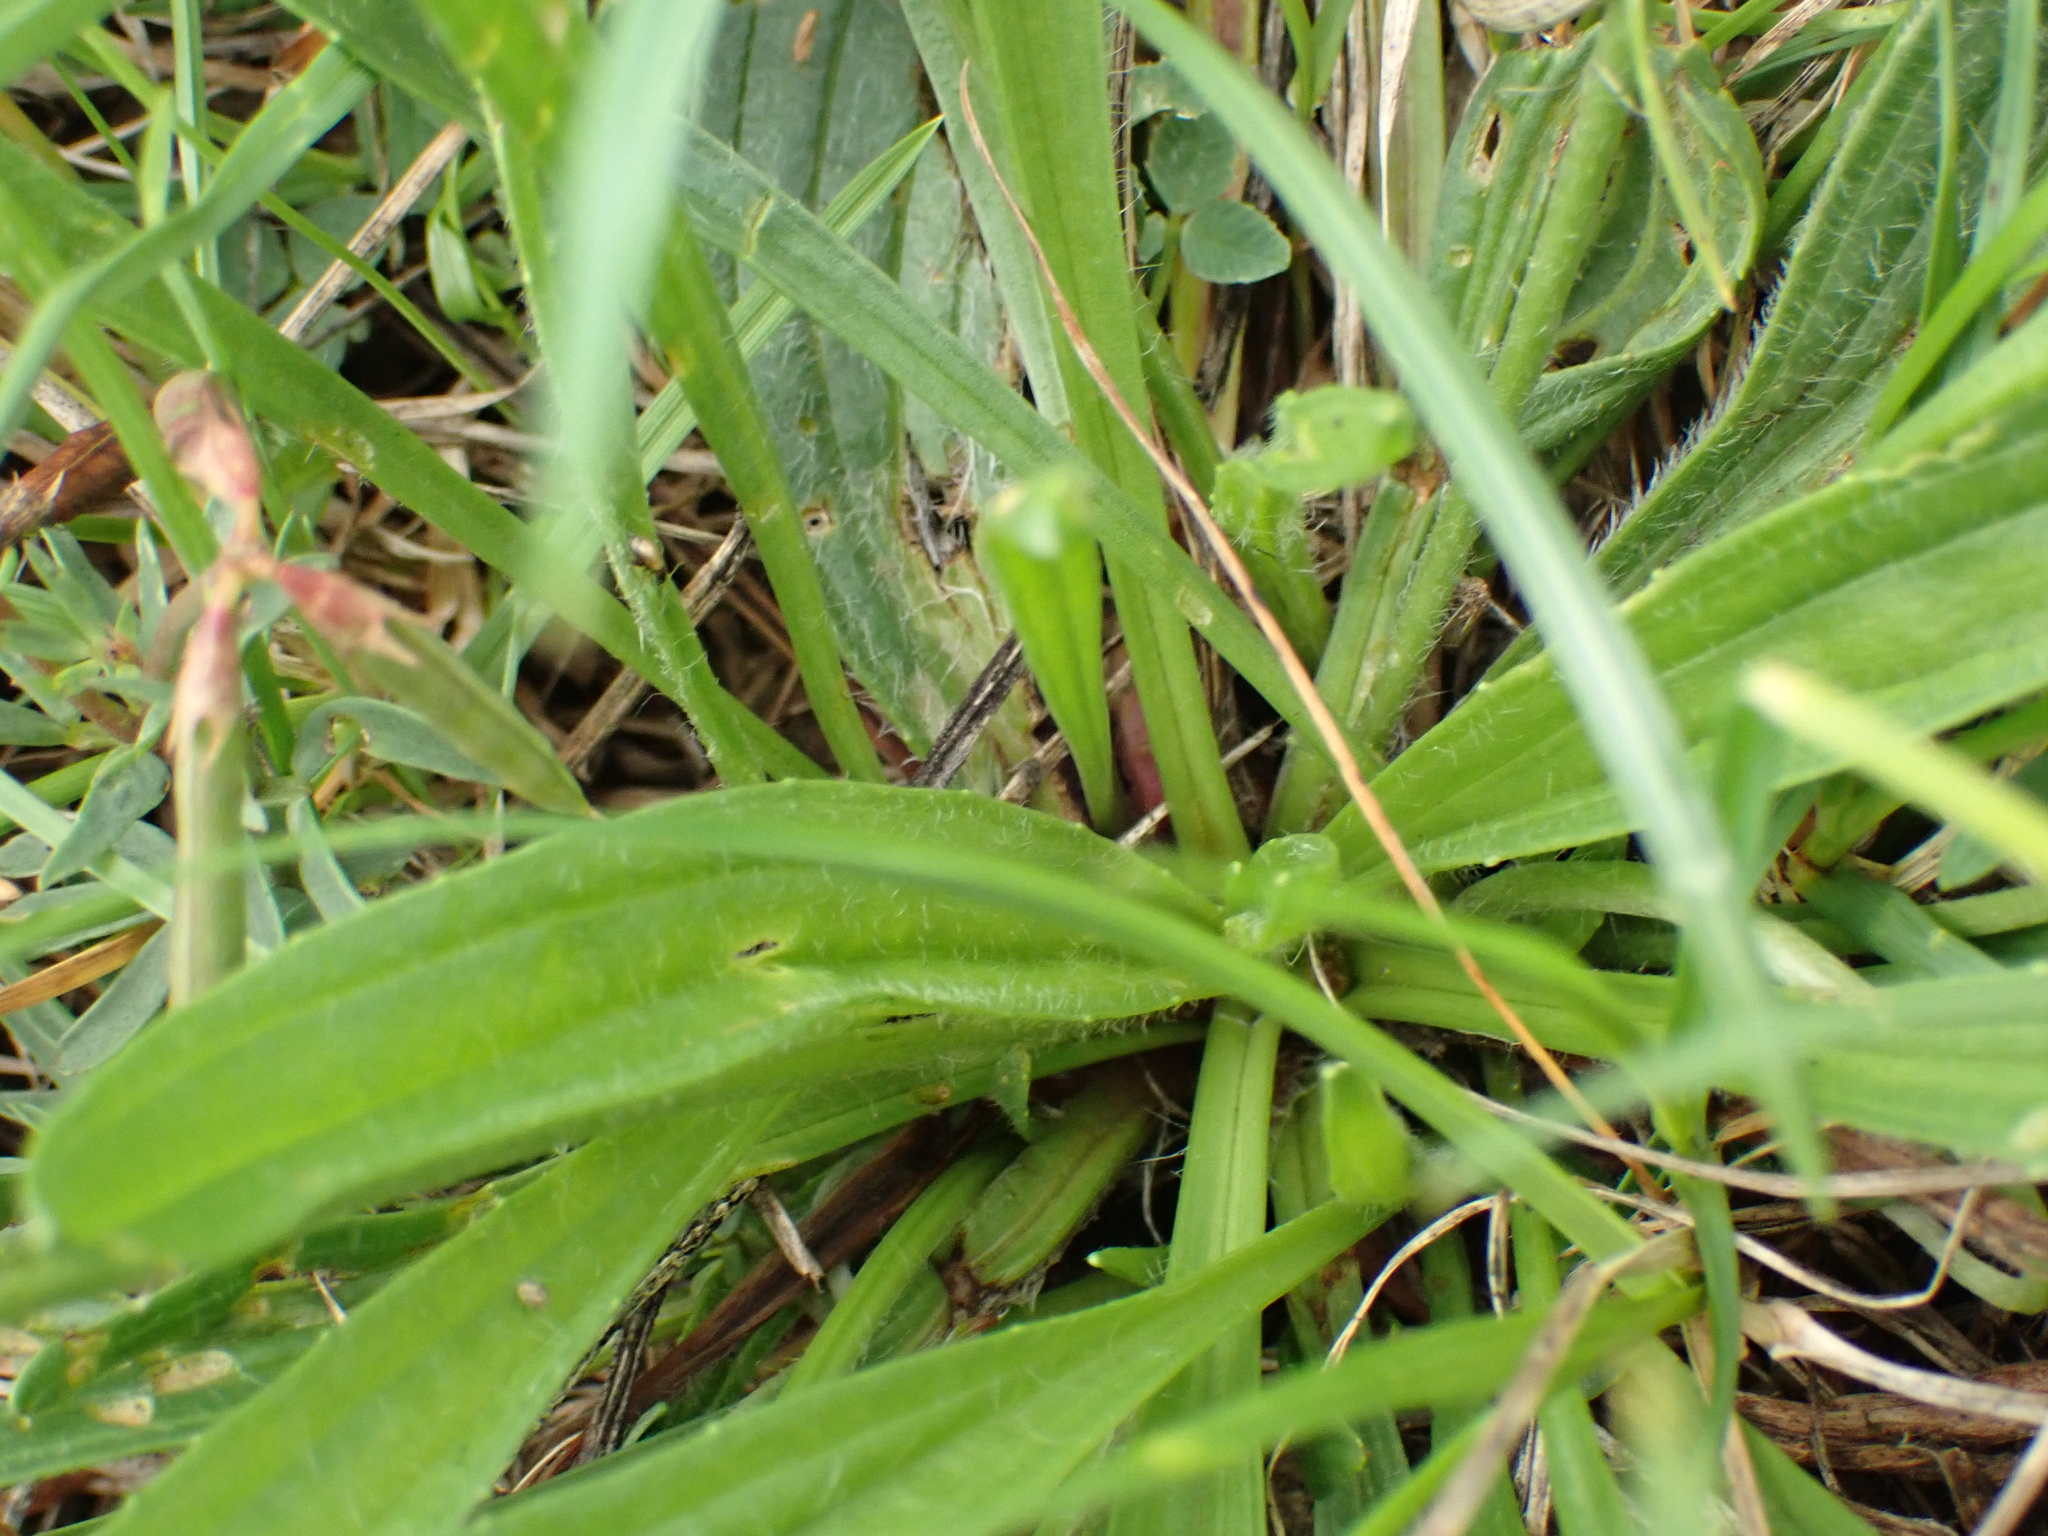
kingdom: Plantae
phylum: Tracheophyta
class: Magnoliopsida
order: Lamiales
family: Plantaginaceae
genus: Plantago
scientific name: Plantago lanceolata
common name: Ribwort plantain
